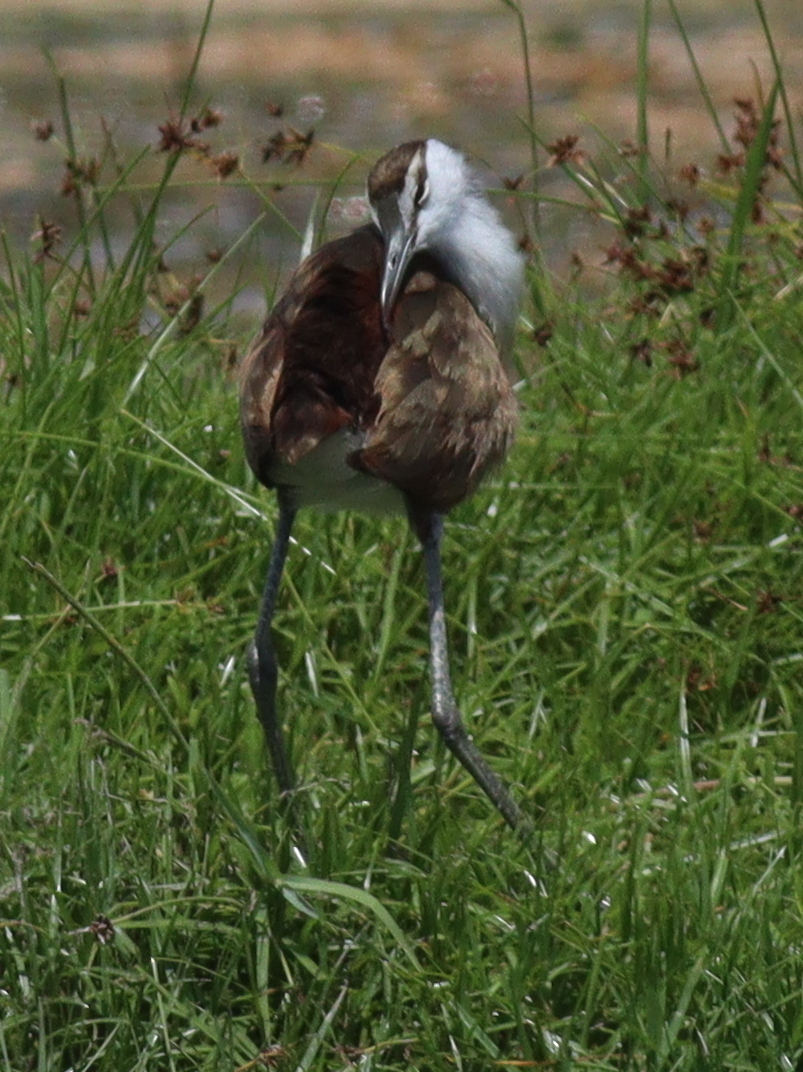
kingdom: Animalia
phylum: Chordata
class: Aves
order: Charadriiformes
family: Jacanidae
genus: Actophilornis
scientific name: Actophilornis africanus
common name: African jacana
